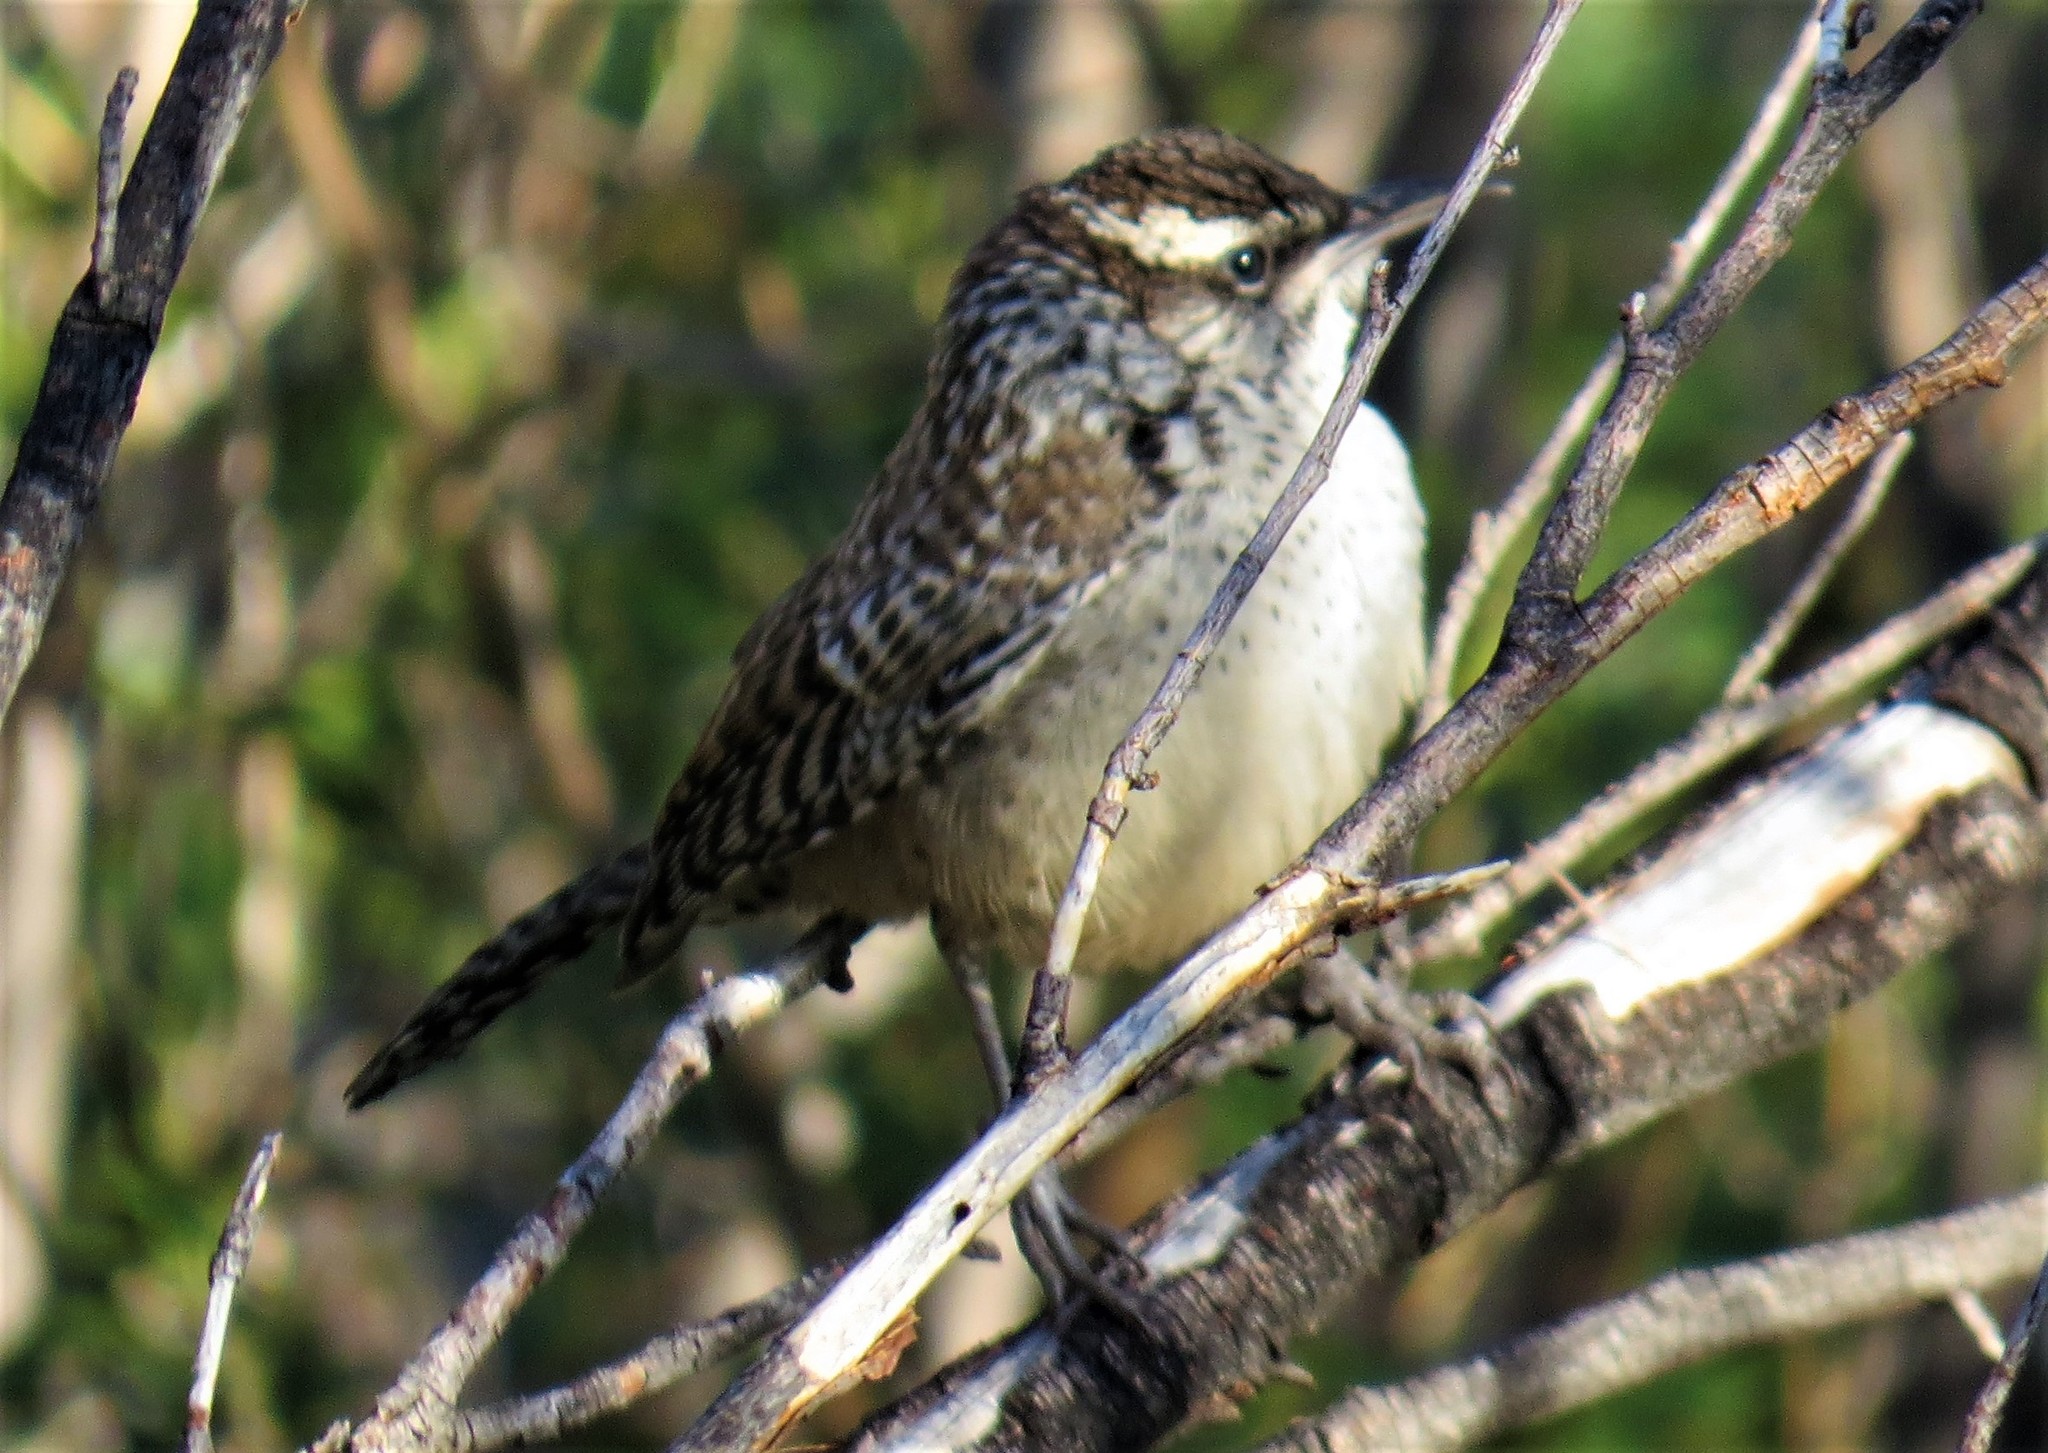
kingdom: Animalia
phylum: Chordata
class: Aves
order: Passeriformes
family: Troglodytidae
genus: Campylorhynchus
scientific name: Campylorhynchus brunneicapillus
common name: Cactus wren
